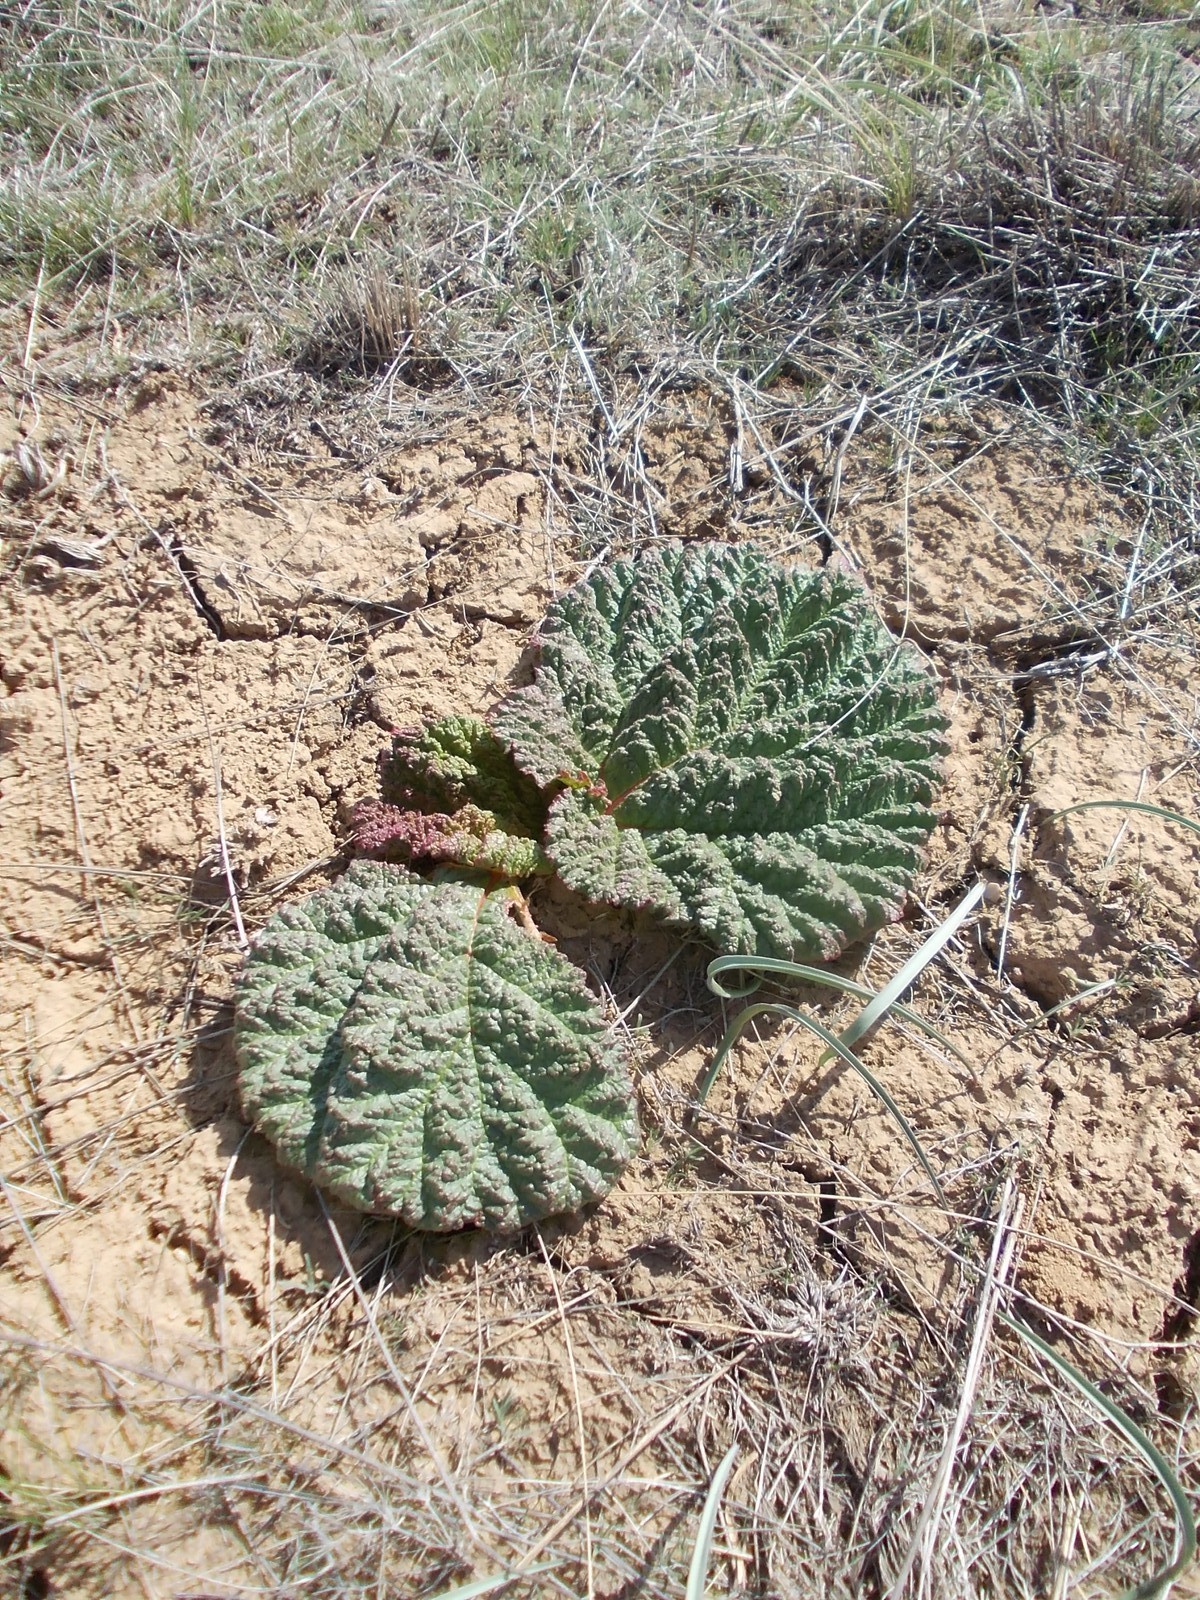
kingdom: Plantae
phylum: Tracheophyta
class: Magnoliopsida
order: Caryophyllales
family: Polygonaceae
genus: Rheum
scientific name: Rheum tataricum
